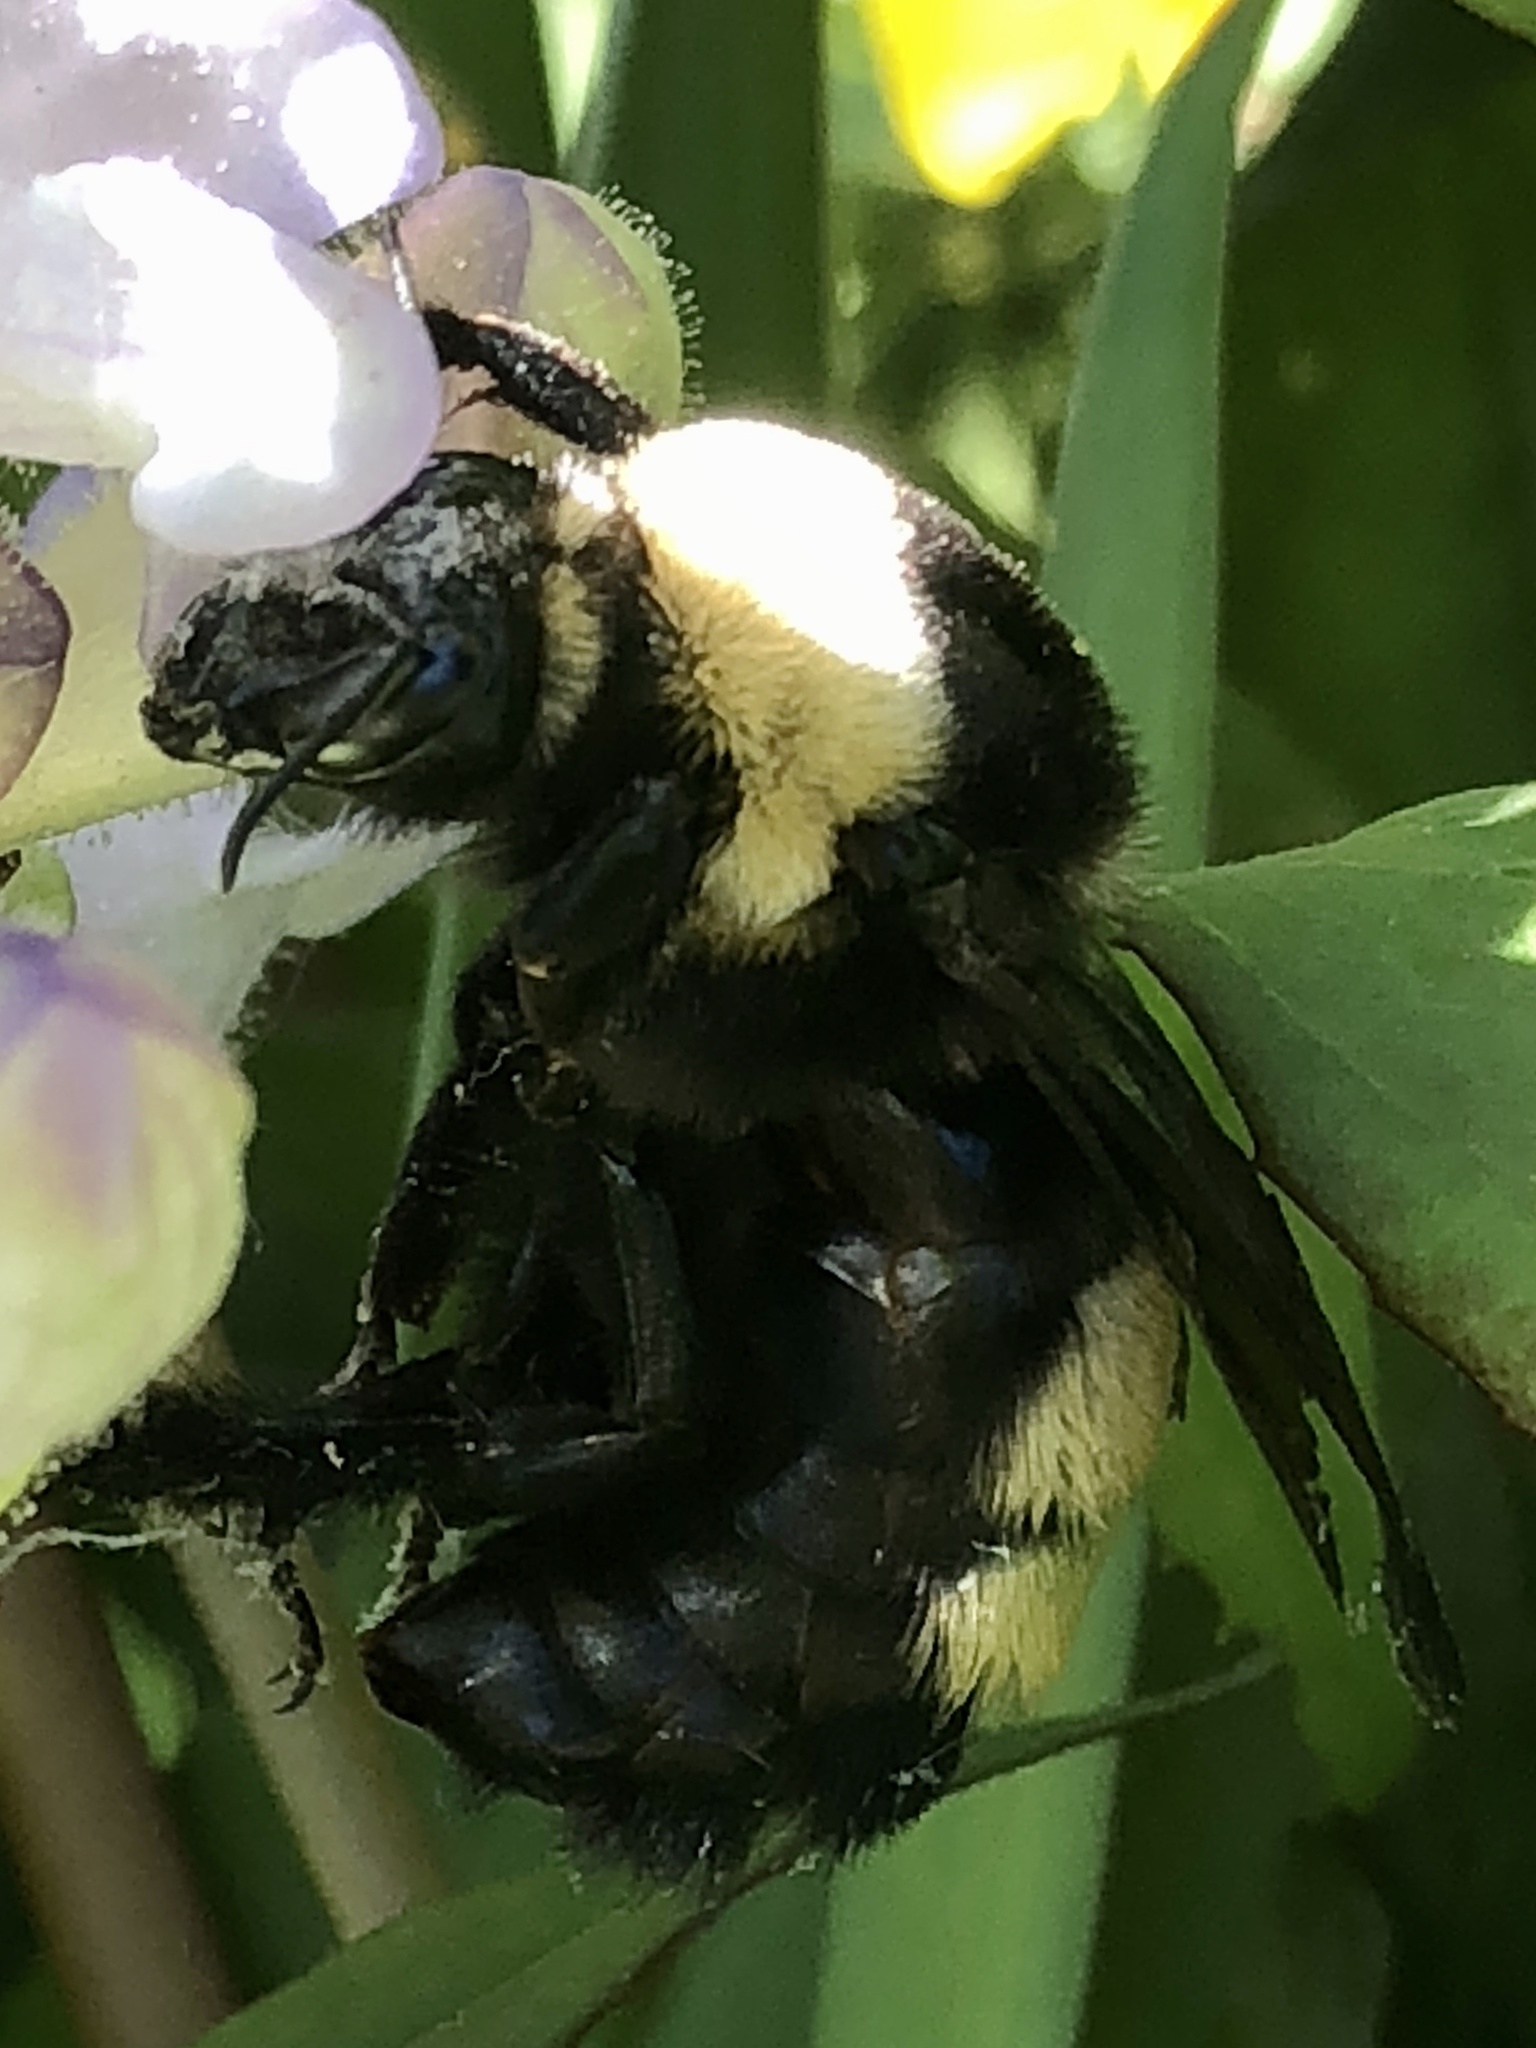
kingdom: Animalia
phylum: Arthropoda
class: Insecta
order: Hymenoptera
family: Apidae
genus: Bombus
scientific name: Bombus auricomus
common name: Black and gold bumble bee
